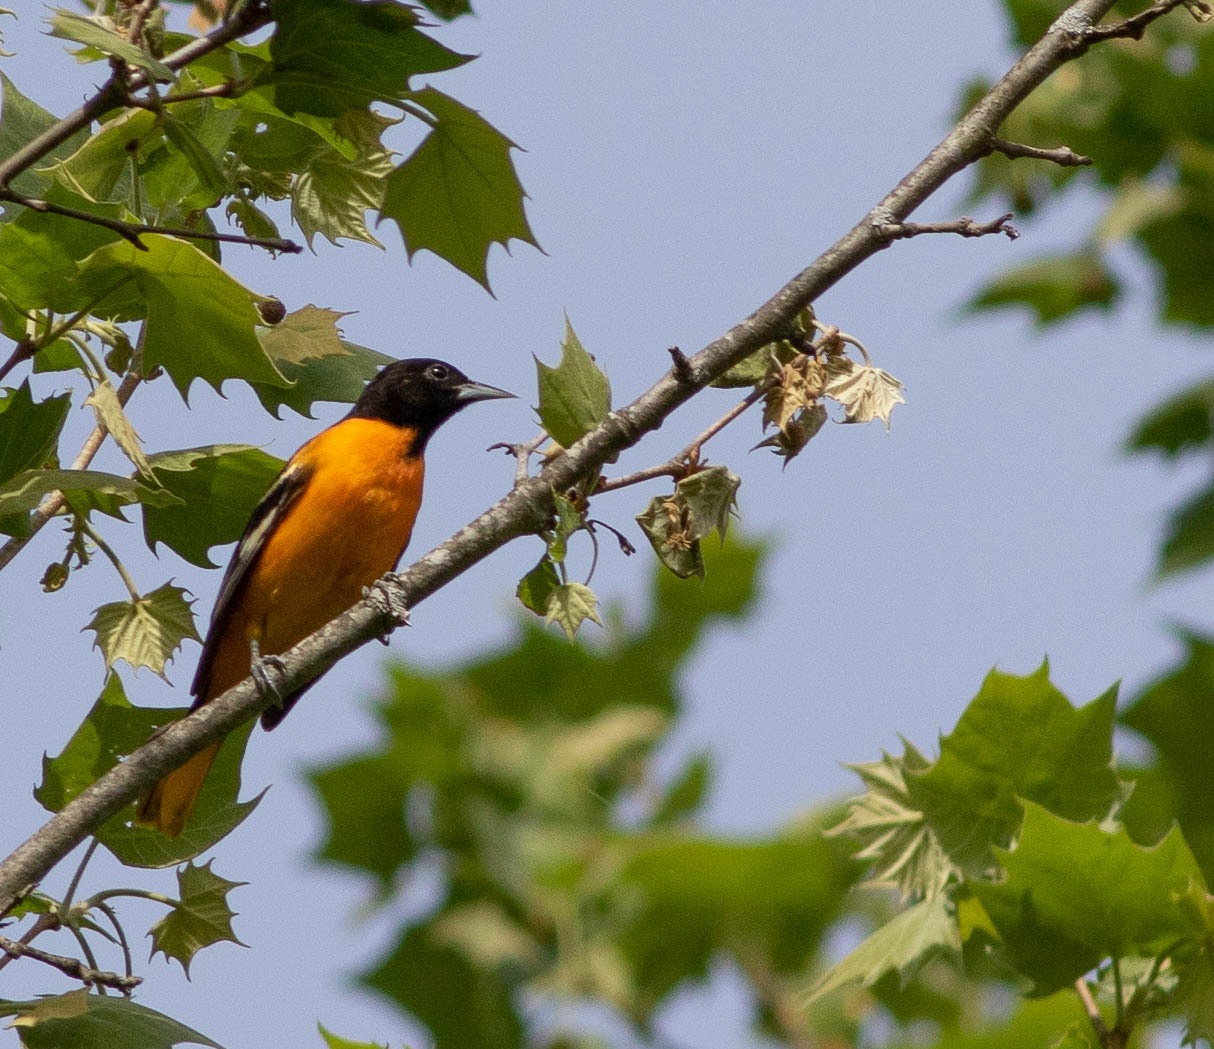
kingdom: Animalia
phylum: Chordata
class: Aves
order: Passeriformes
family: Icteridae
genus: Icterus
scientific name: Icterus galbula
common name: Baltimore oriole
